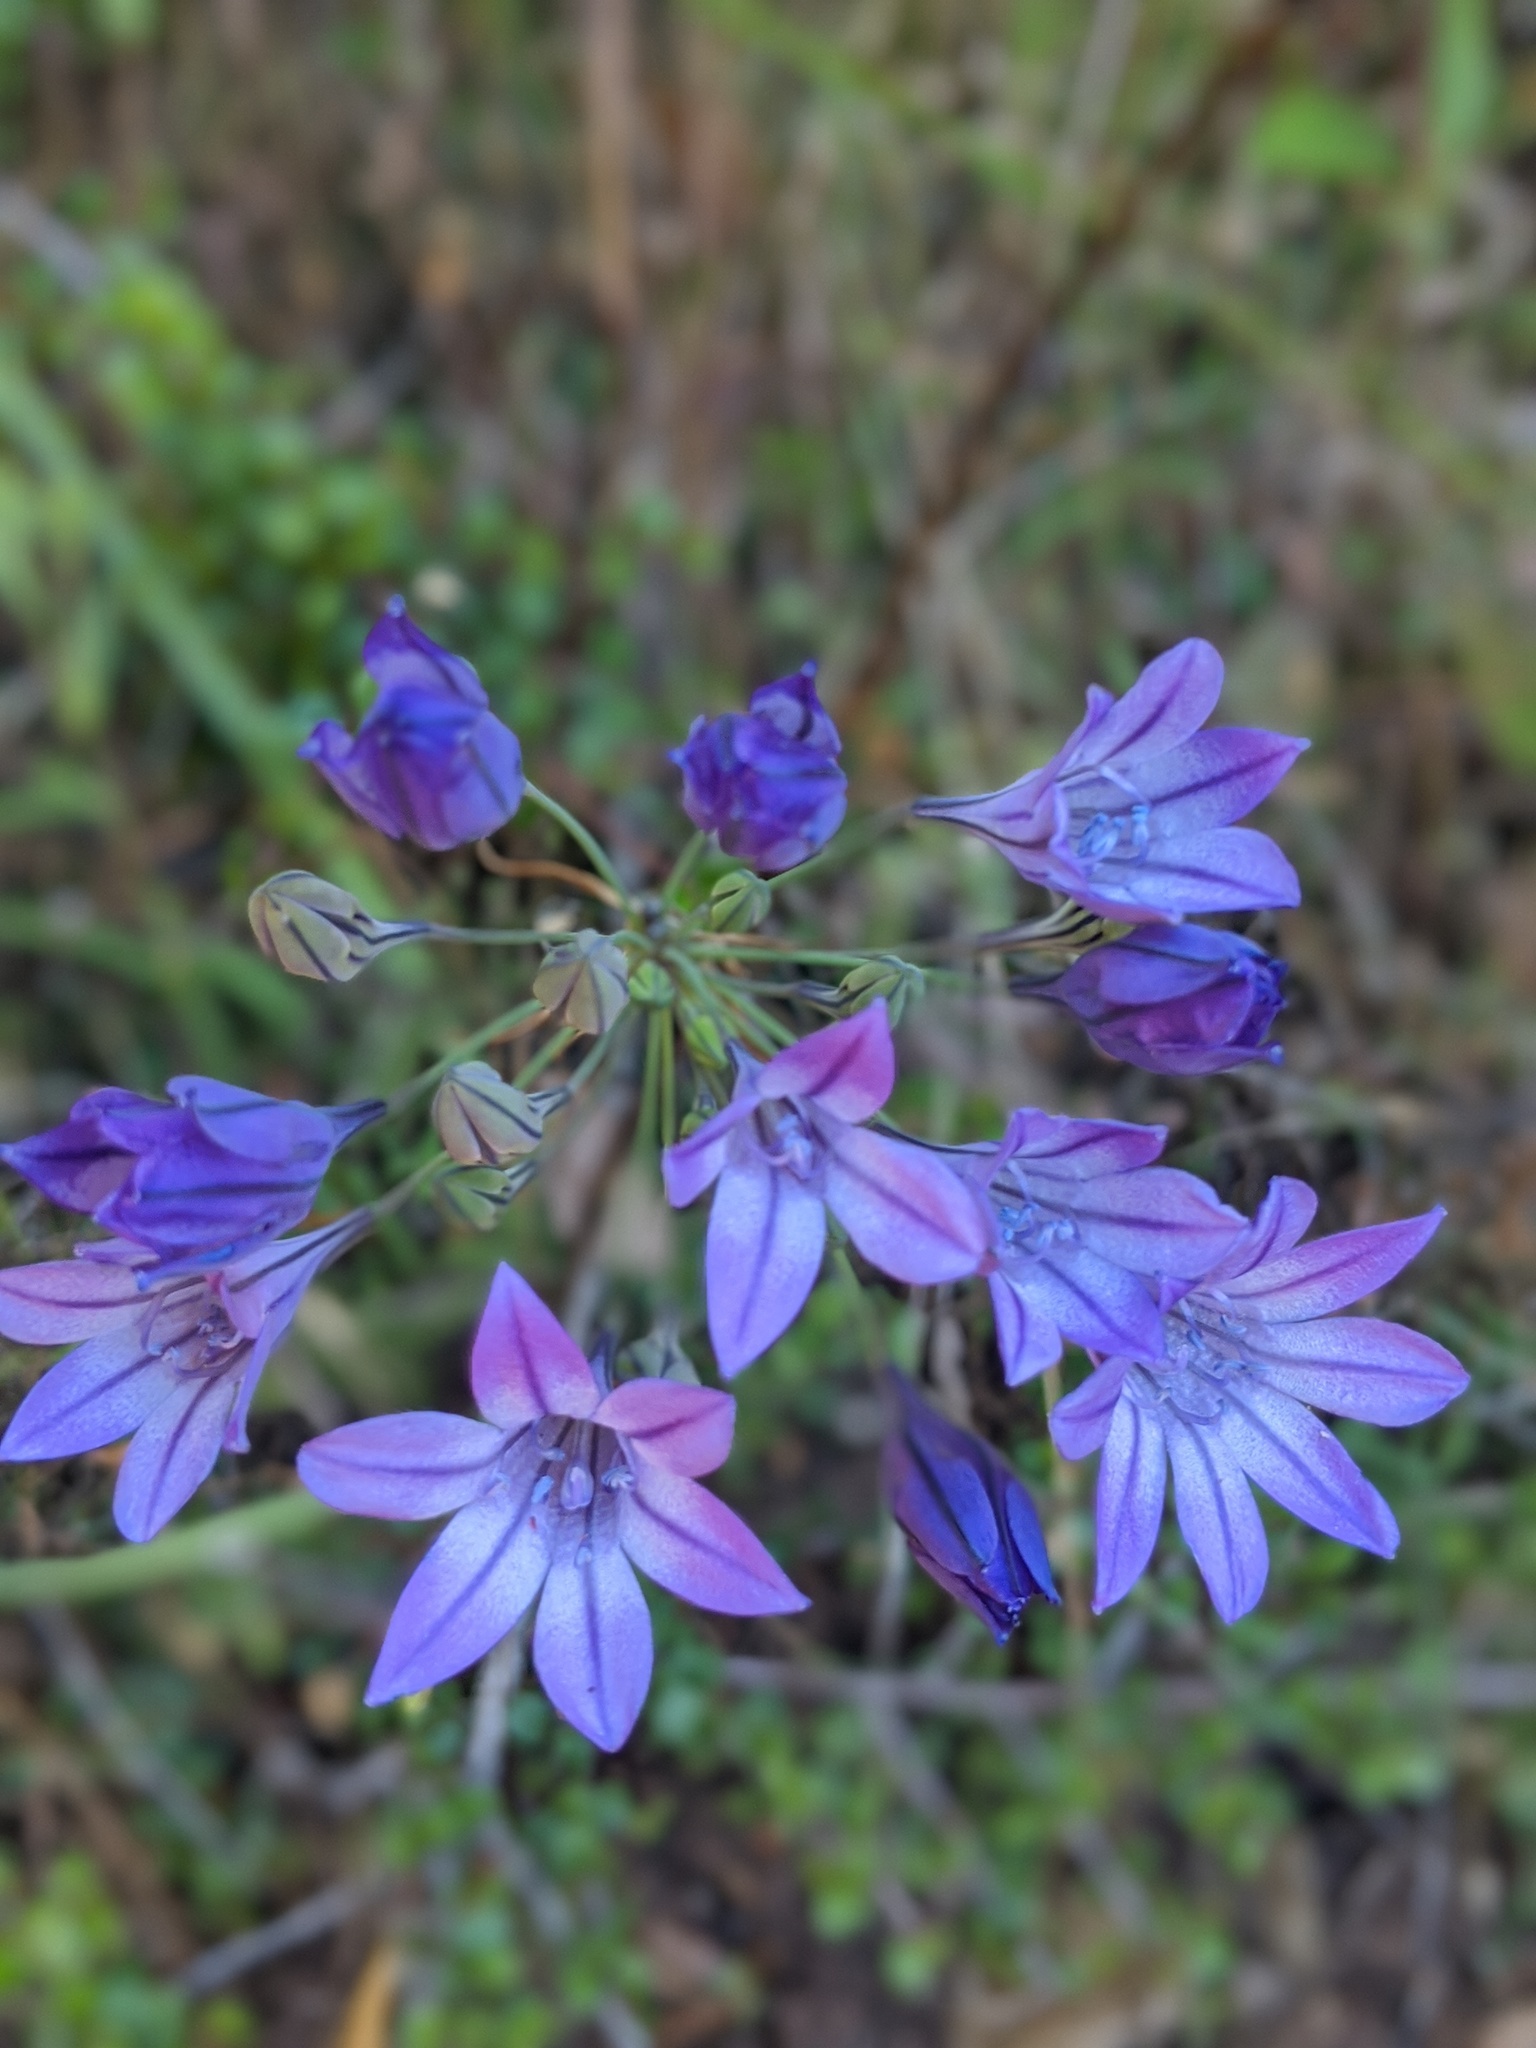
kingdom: Plantae
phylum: Tracheophyta
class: Liliopsida
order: Asparagales
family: Asparagaceae
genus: Triteleia
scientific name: Triteleia laxa
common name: Triplet-lily
